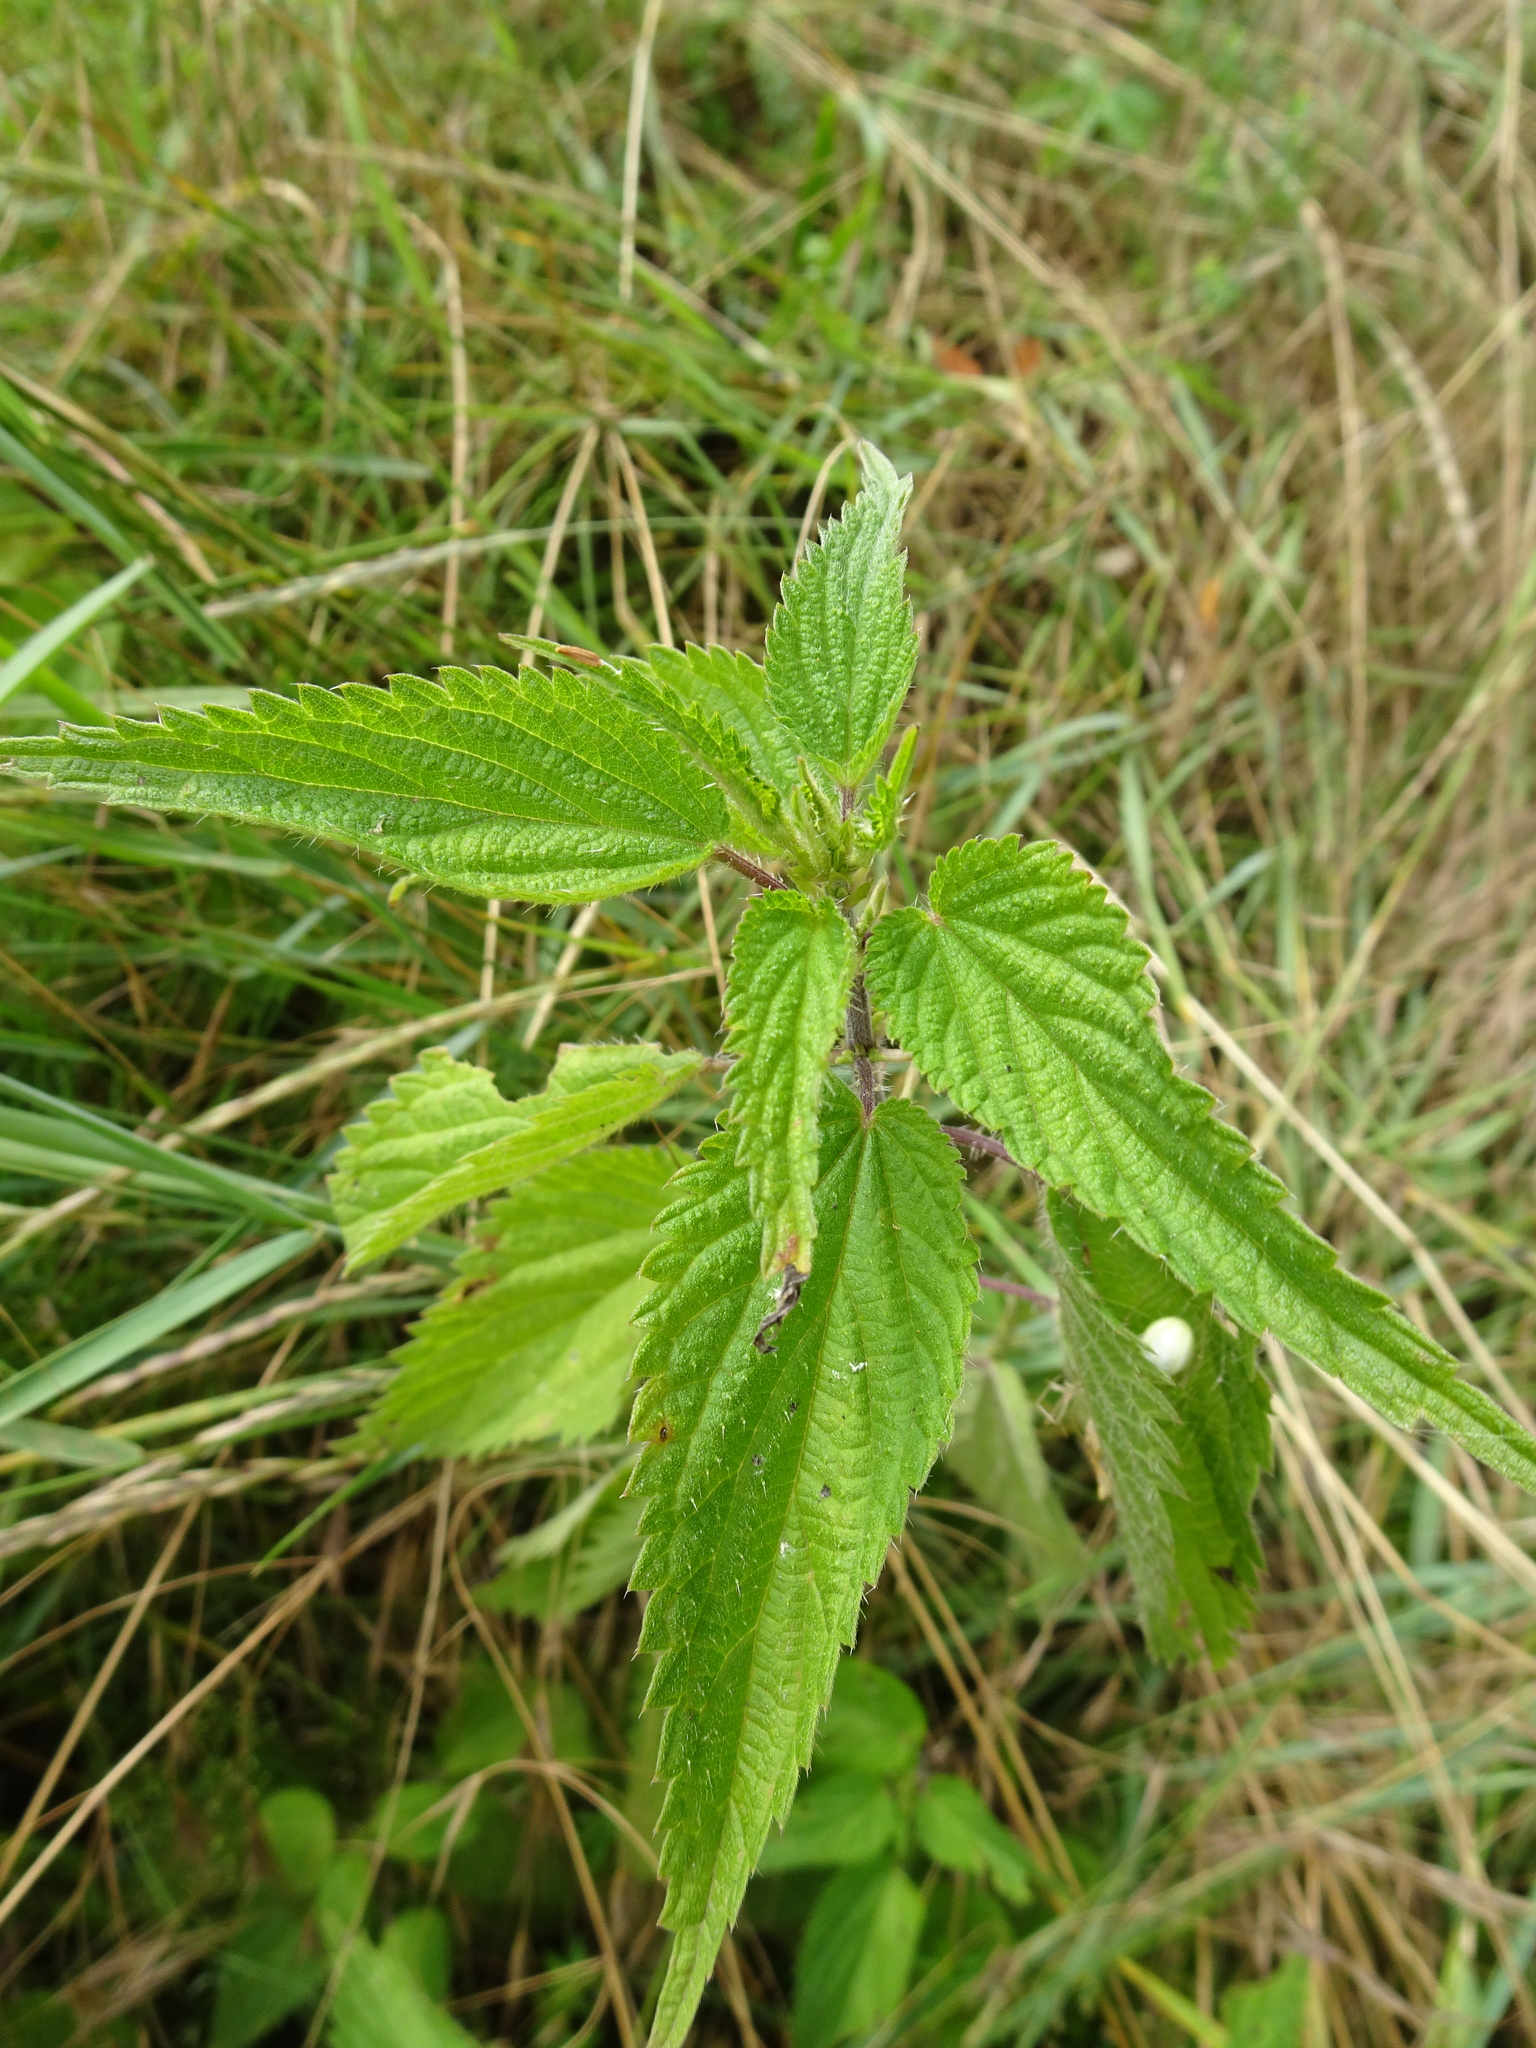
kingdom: Plantae
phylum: Tracheophyta
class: Magnoliopsida
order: Rosales
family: Urticaceae
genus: Urtica
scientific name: Urtica dioica
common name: Common nettle
